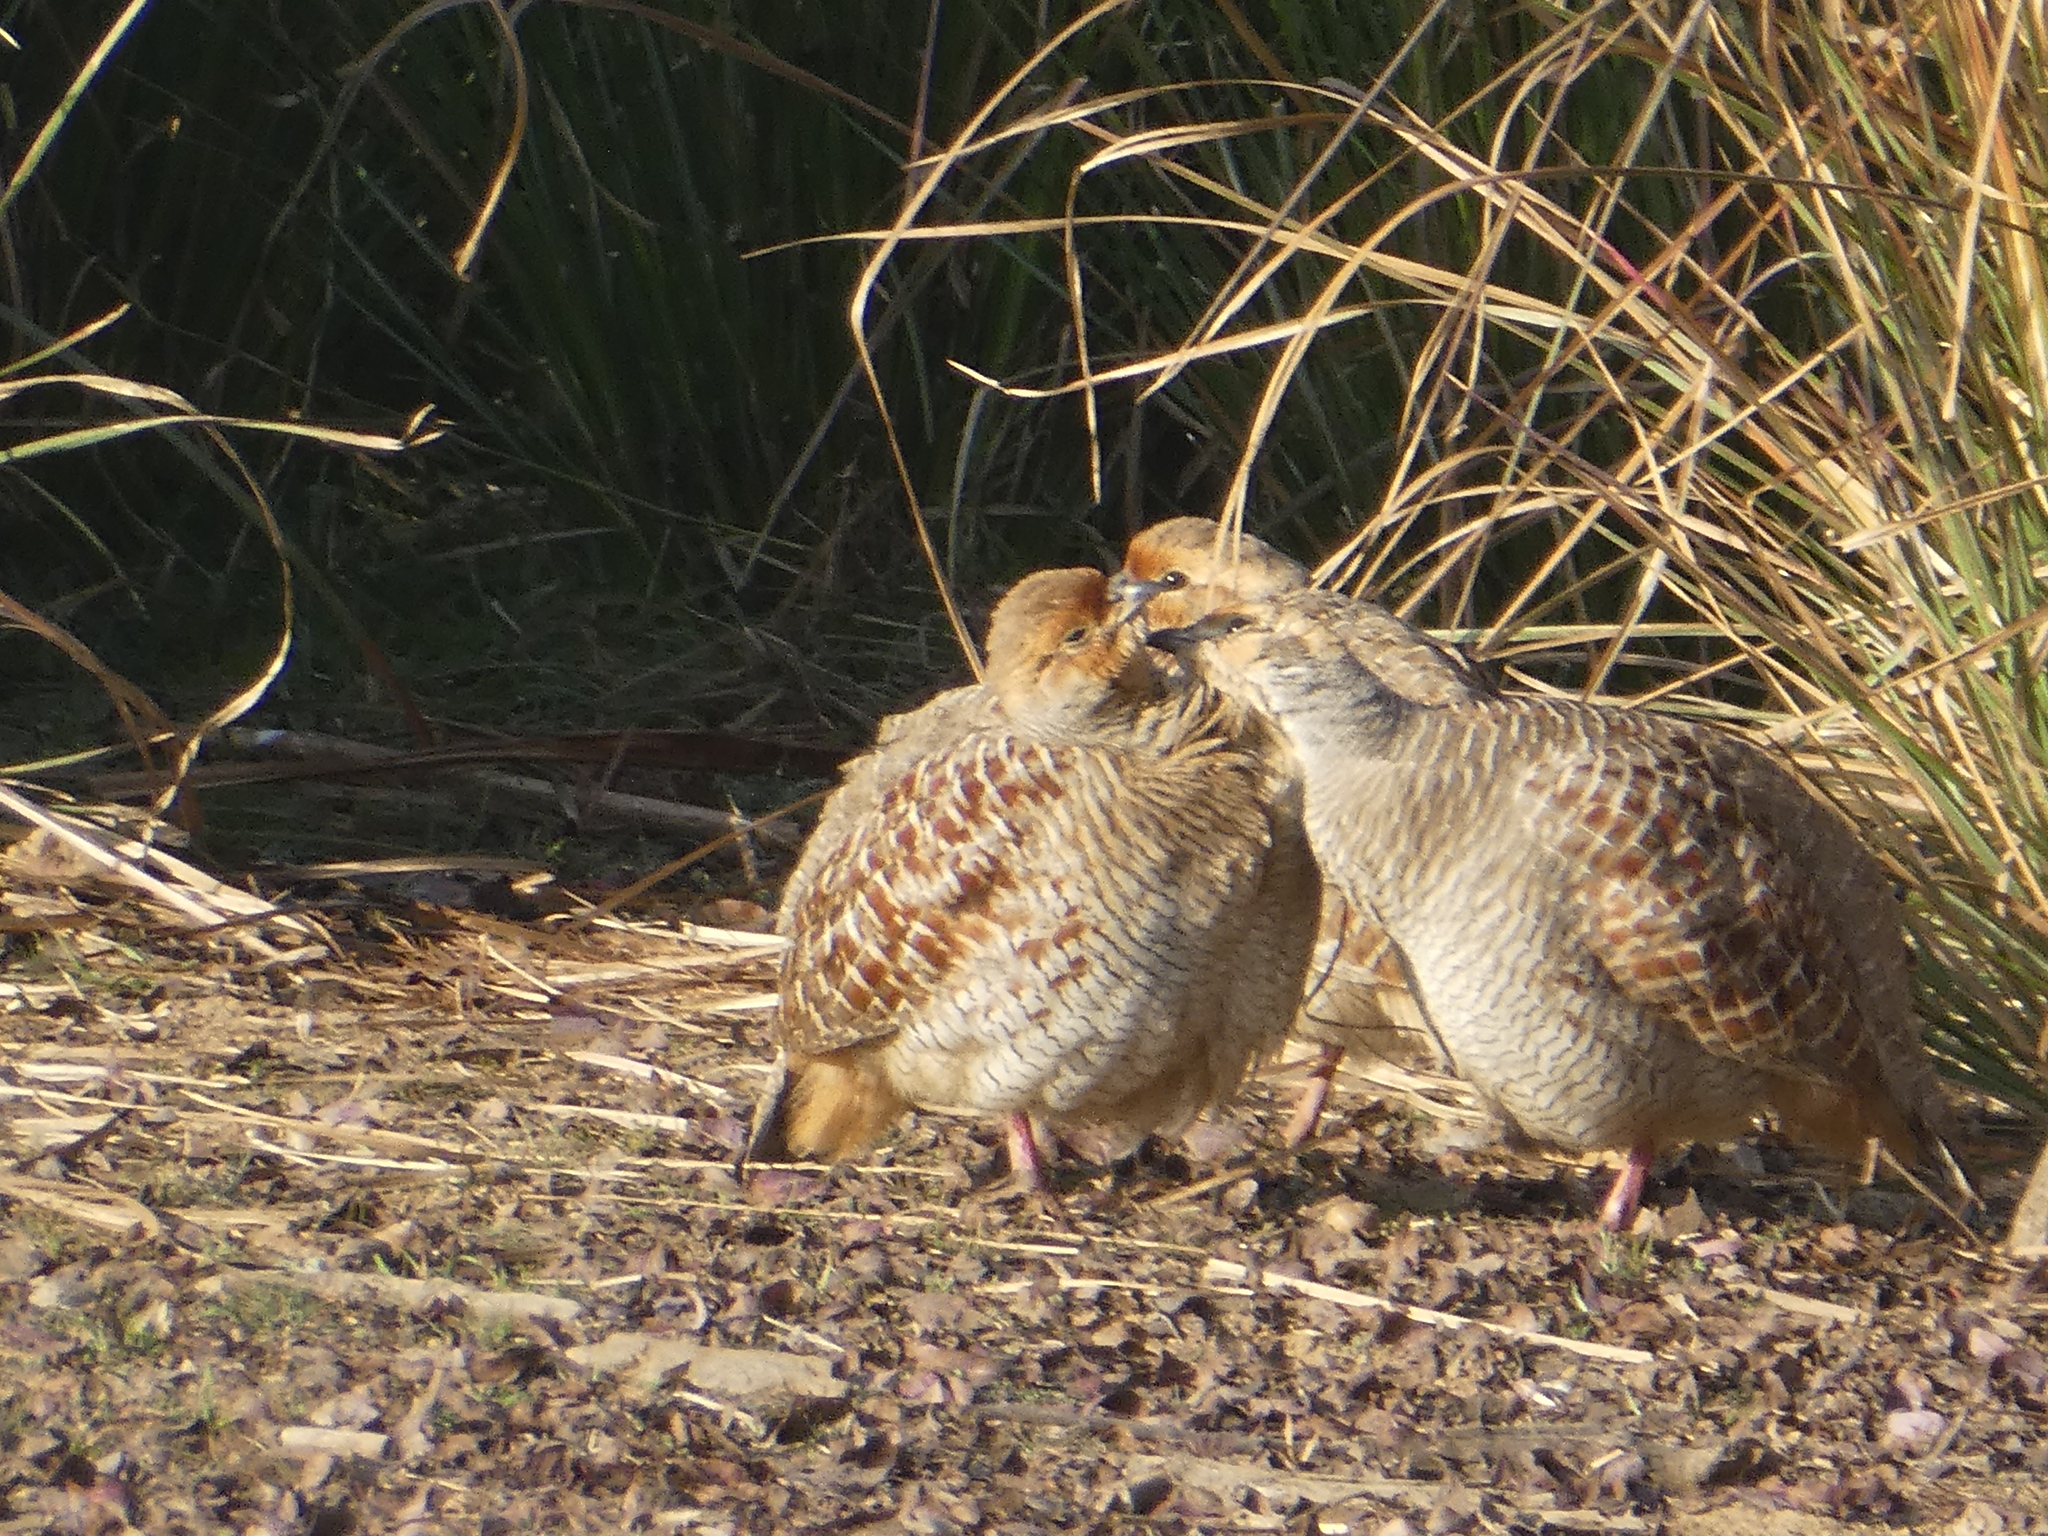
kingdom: Animalia
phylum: Chordata
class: Aves
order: Galliformes
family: Phasianidae
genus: Ortygornis
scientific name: Ortygornis pondicerianus
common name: Grey francolin
